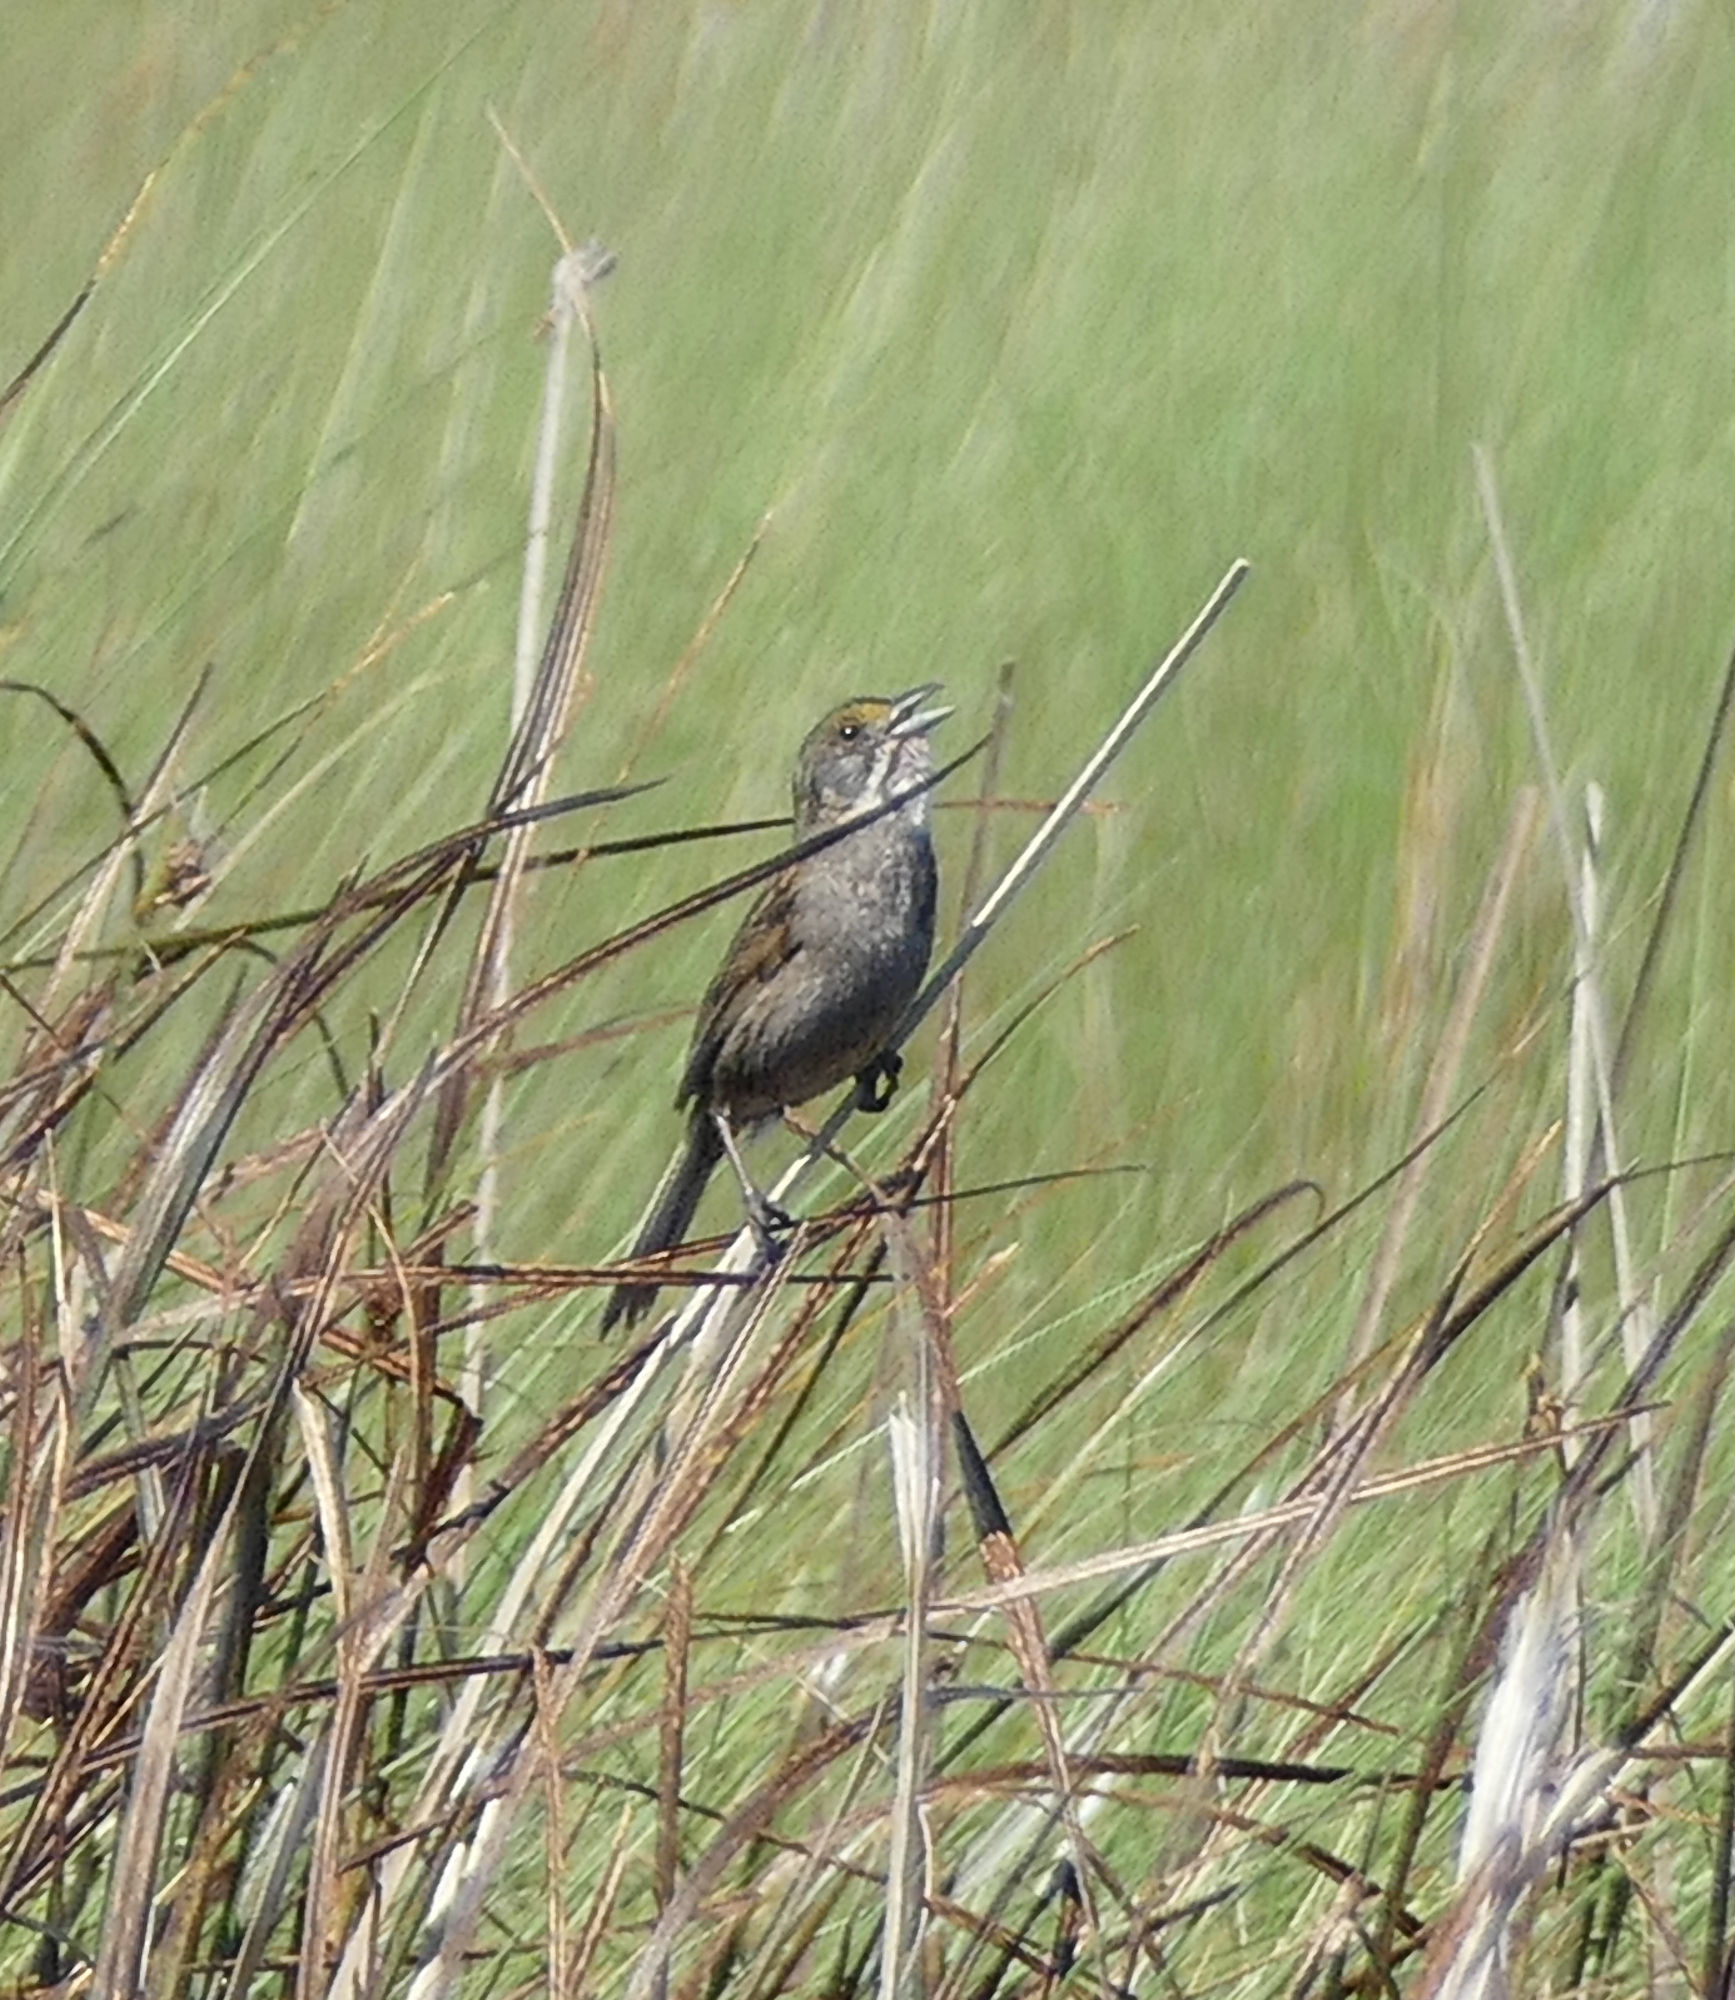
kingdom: Animalia
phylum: Chordata
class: Aves
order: Passeriformes
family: Passerellidae
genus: Ammospiza
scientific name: Ammospiza maritima
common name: Seaside sparrow
